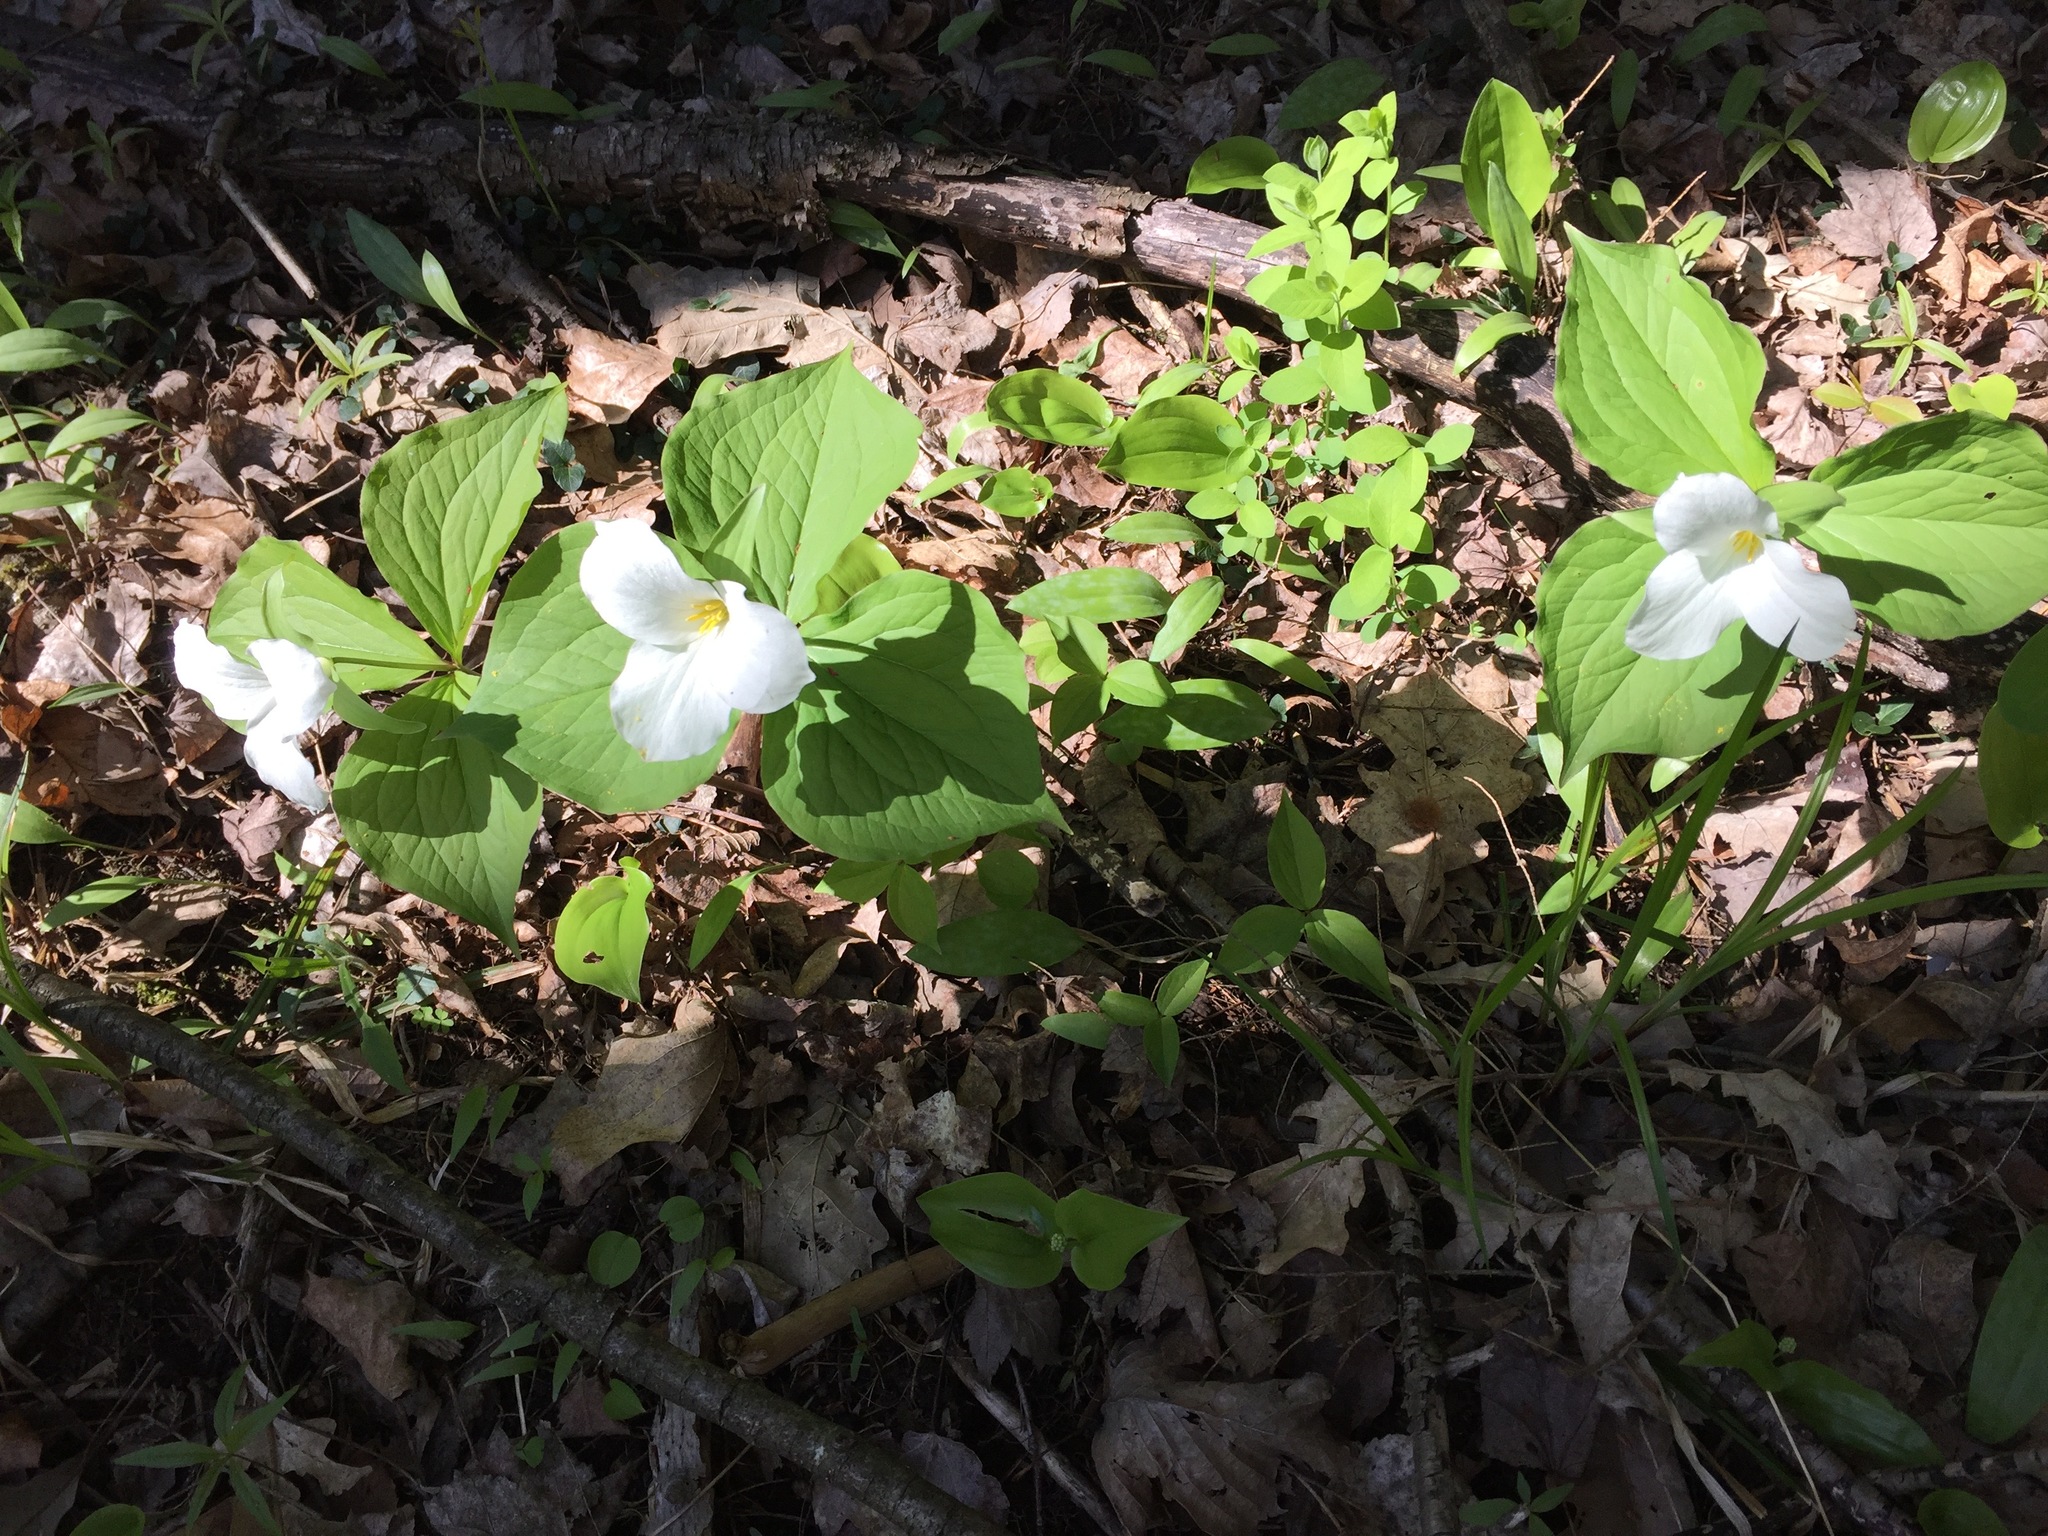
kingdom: Plantae
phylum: Tracheophyta
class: Liliopsida
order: Liliales
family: Melanthiaceae
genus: Trillium
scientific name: Trillium grandiflorum
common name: Great white trillium
